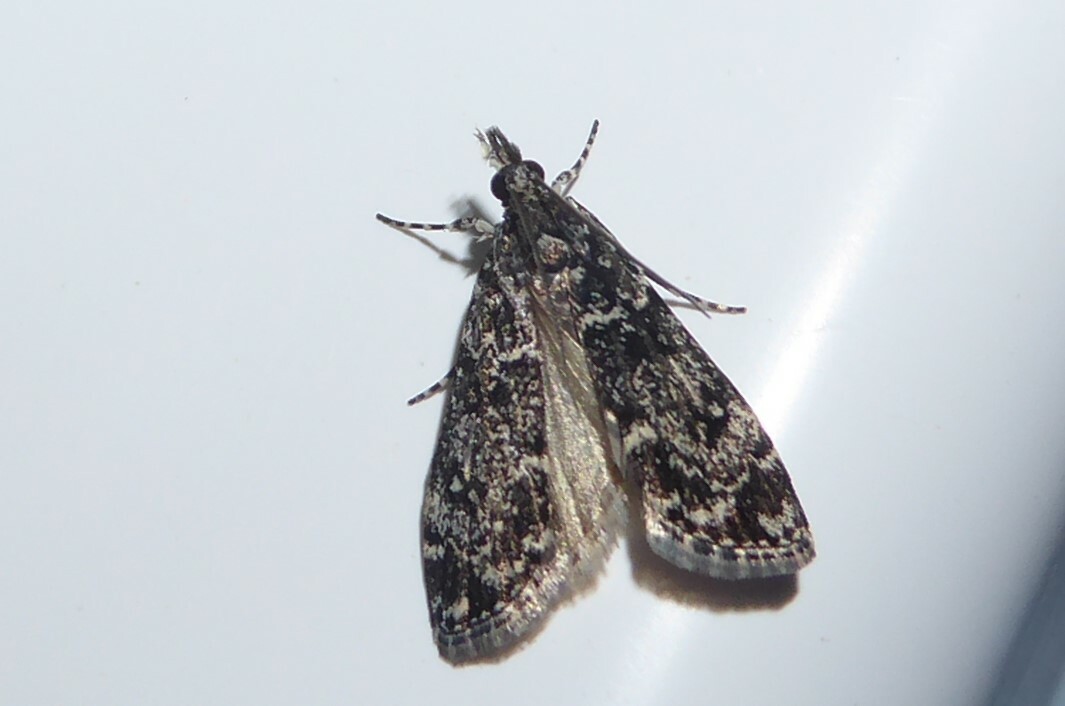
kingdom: Animalia
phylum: Arthropoda
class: Insecta
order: Lepidoptera
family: Crambidae
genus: Eudonia
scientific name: Eudonia philerga
